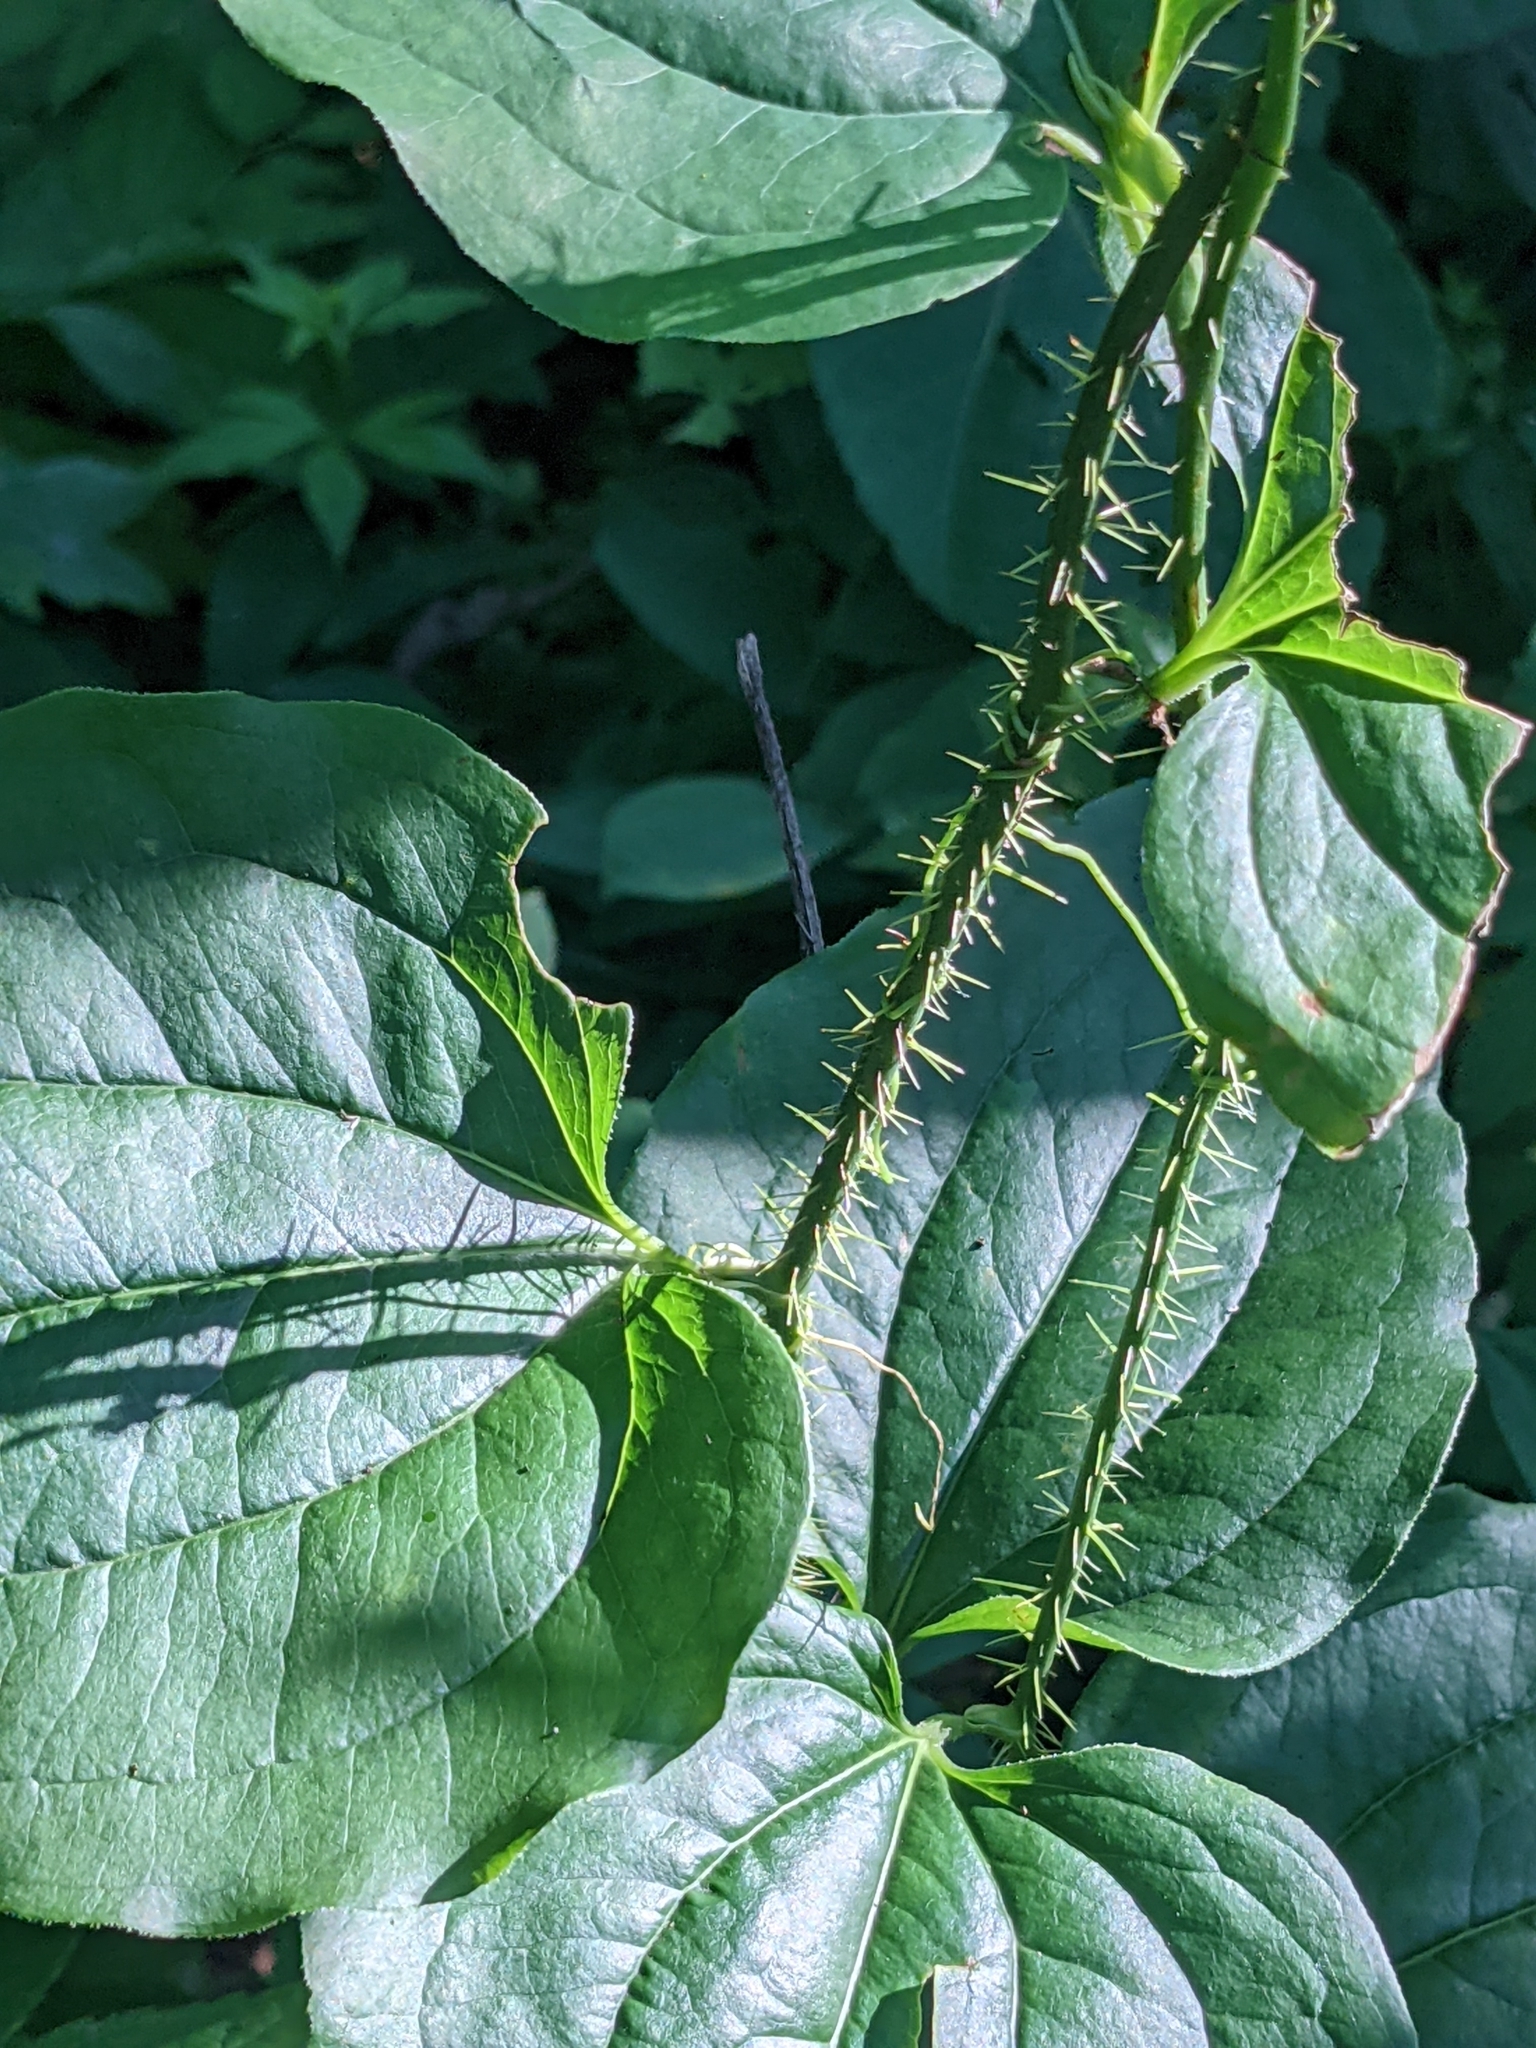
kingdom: Plantae
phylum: Tracheophyta
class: Liliopsida
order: Liliales
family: Smilacaceae
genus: Smilax
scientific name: Smilax tamnoides
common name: Hellfetter
